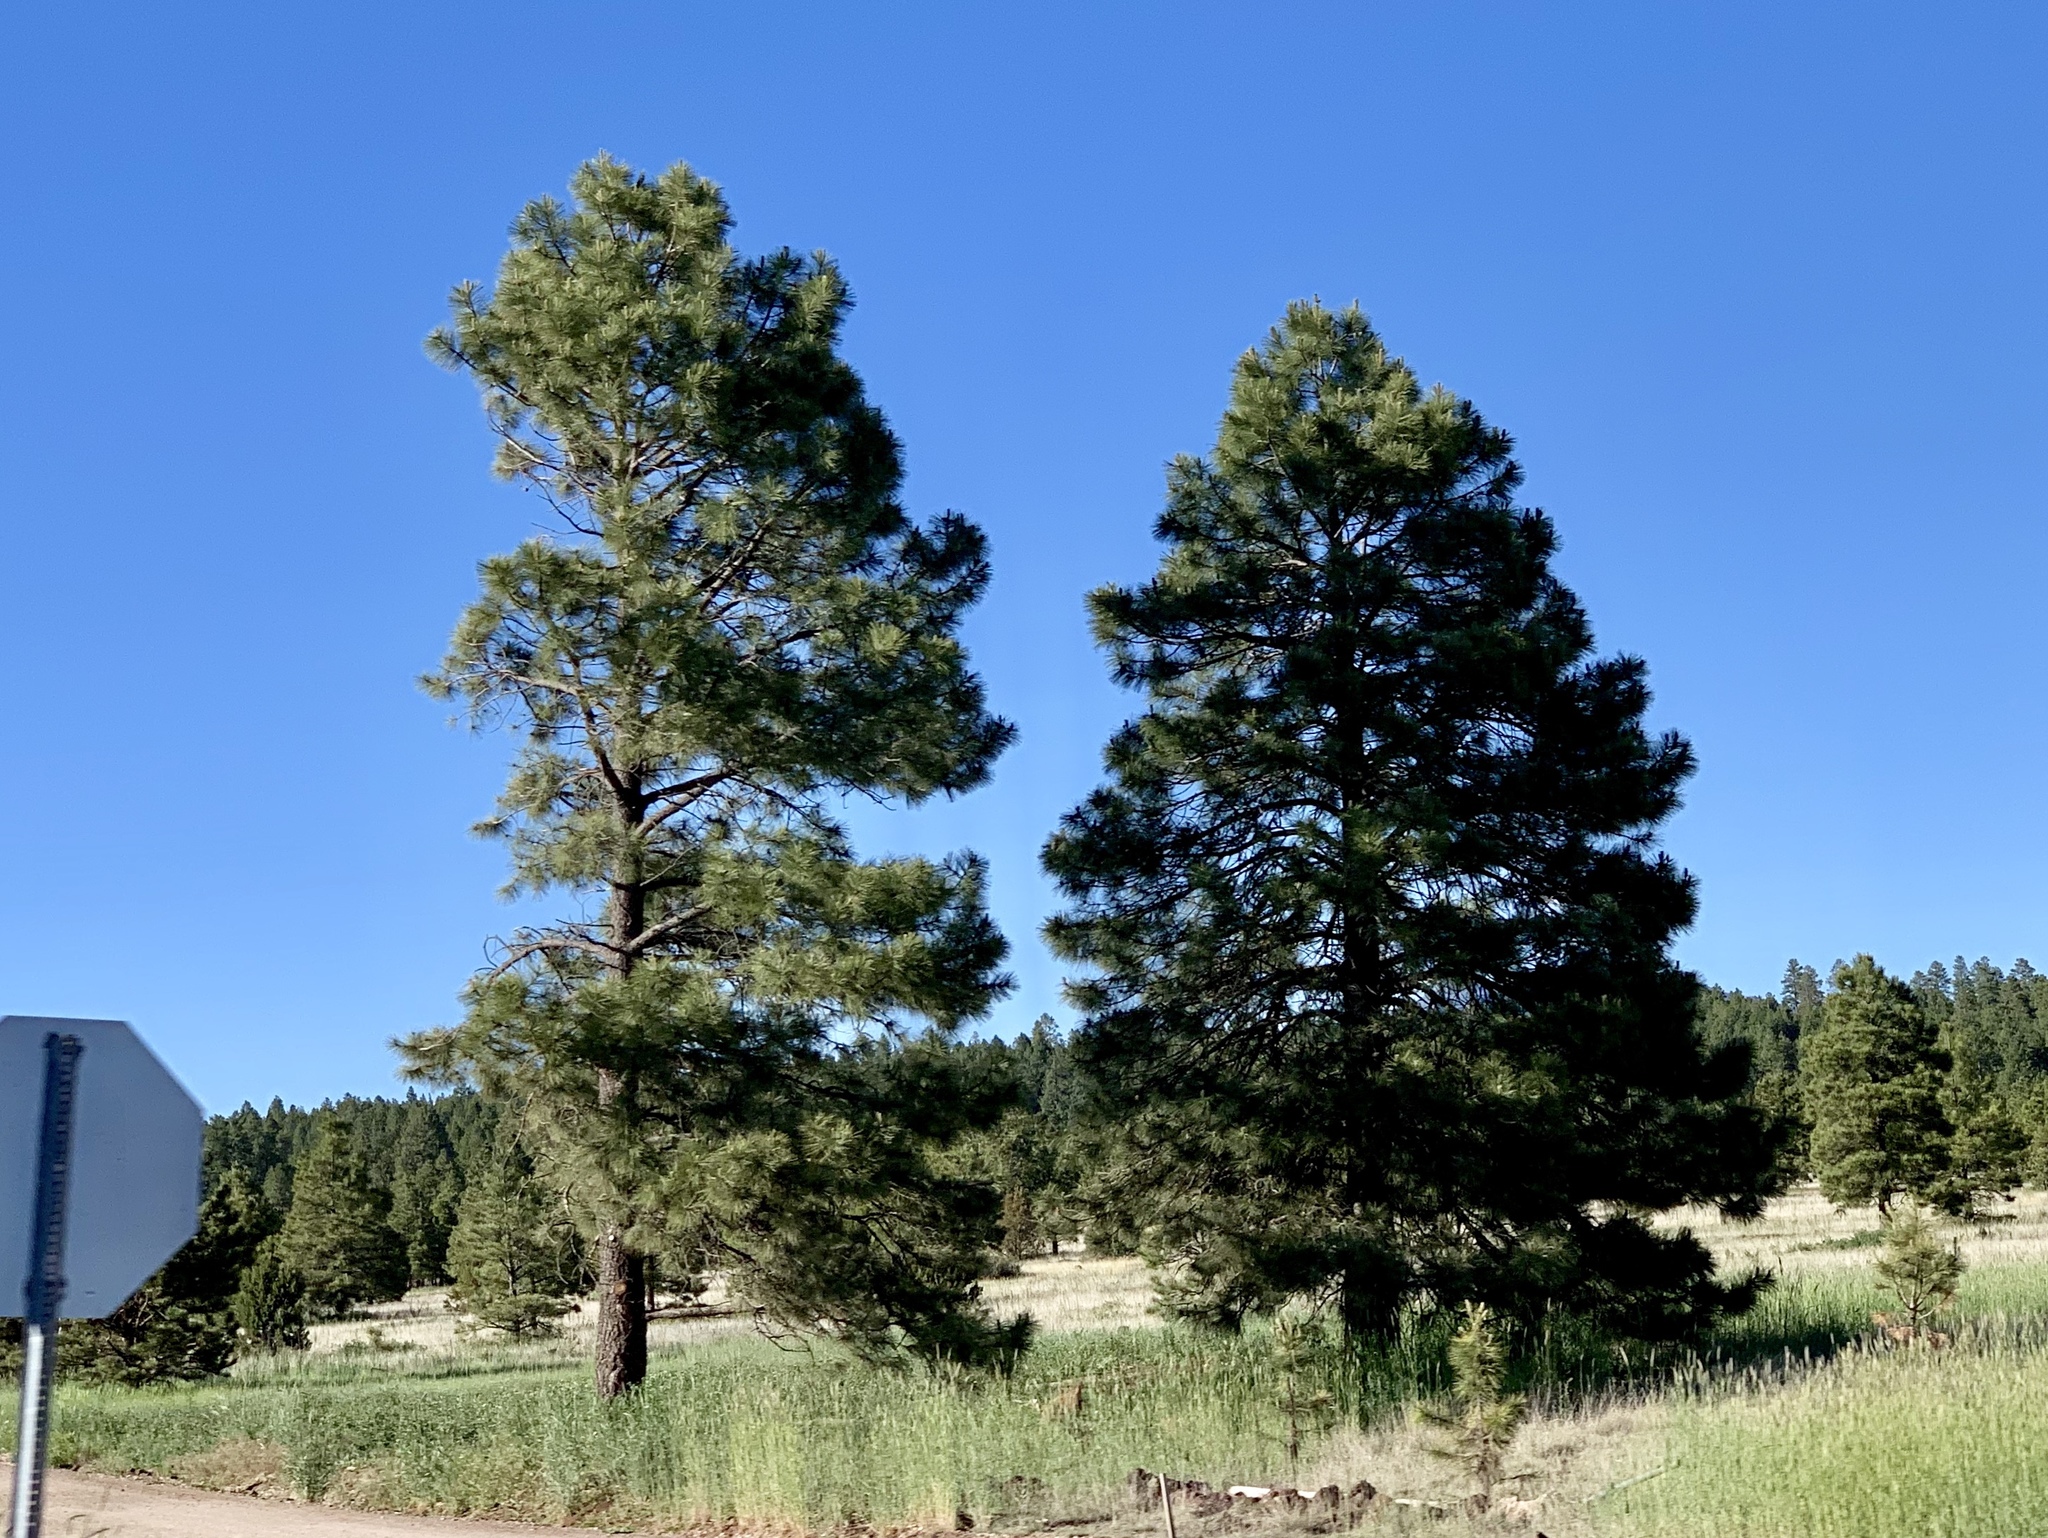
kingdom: Plantae
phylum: Tracheophyta
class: Pinopsida
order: Pinales
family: Pinaceae
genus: Pinus
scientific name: Pinus ponderosa
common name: Western yellow-pine
